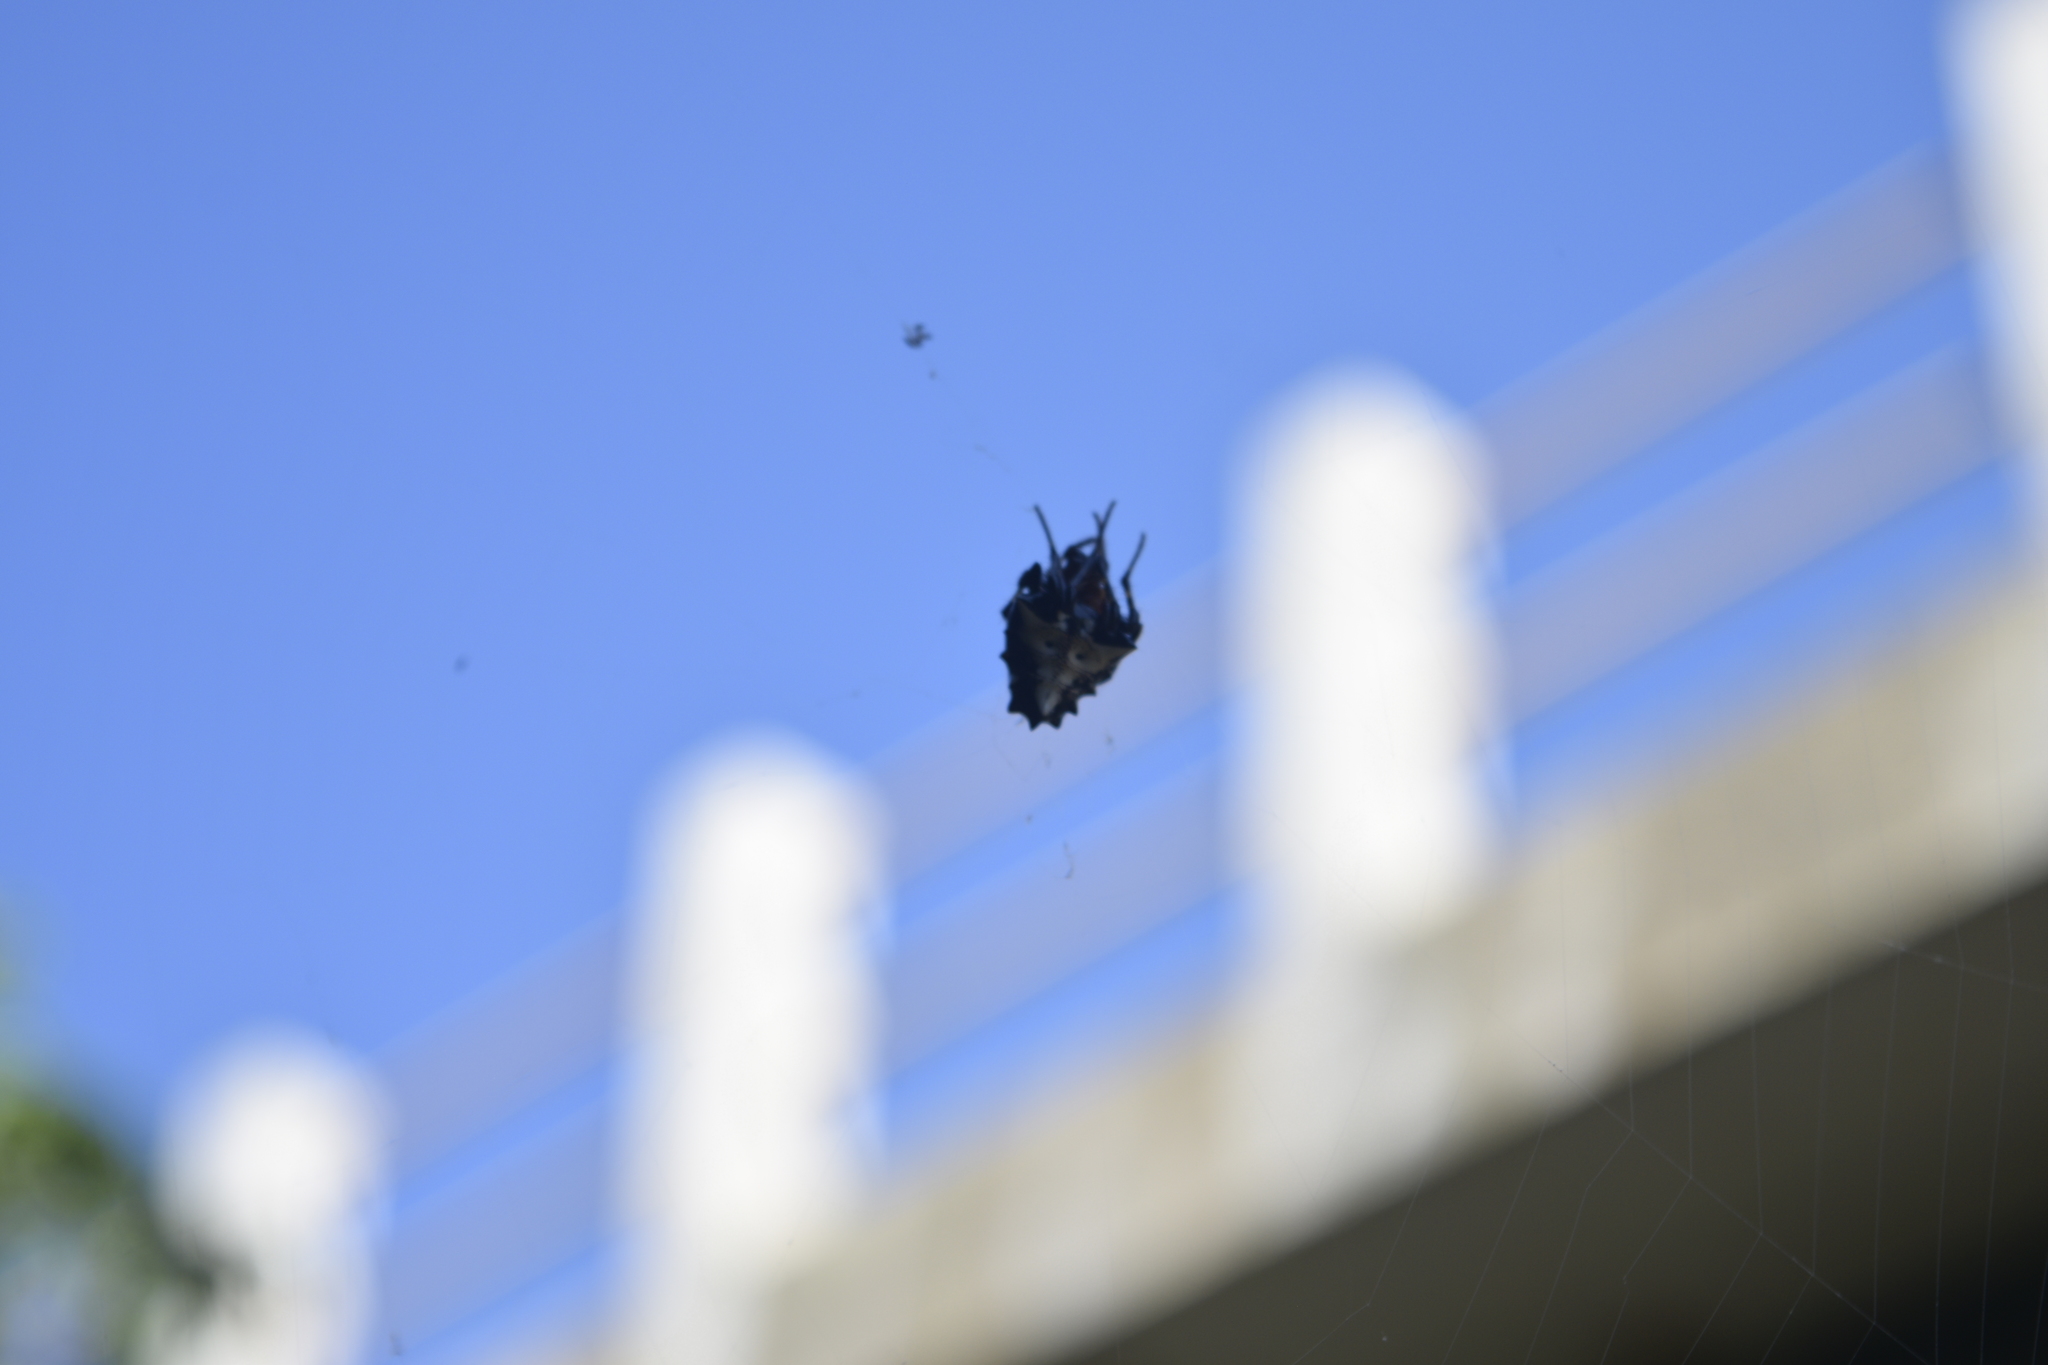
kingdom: Animalia
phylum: Arthropoda
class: Arachnida
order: Araneae
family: Araneidae
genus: Gasteracantha
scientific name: Gasteracantha cancriformis
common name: Orb weavers
